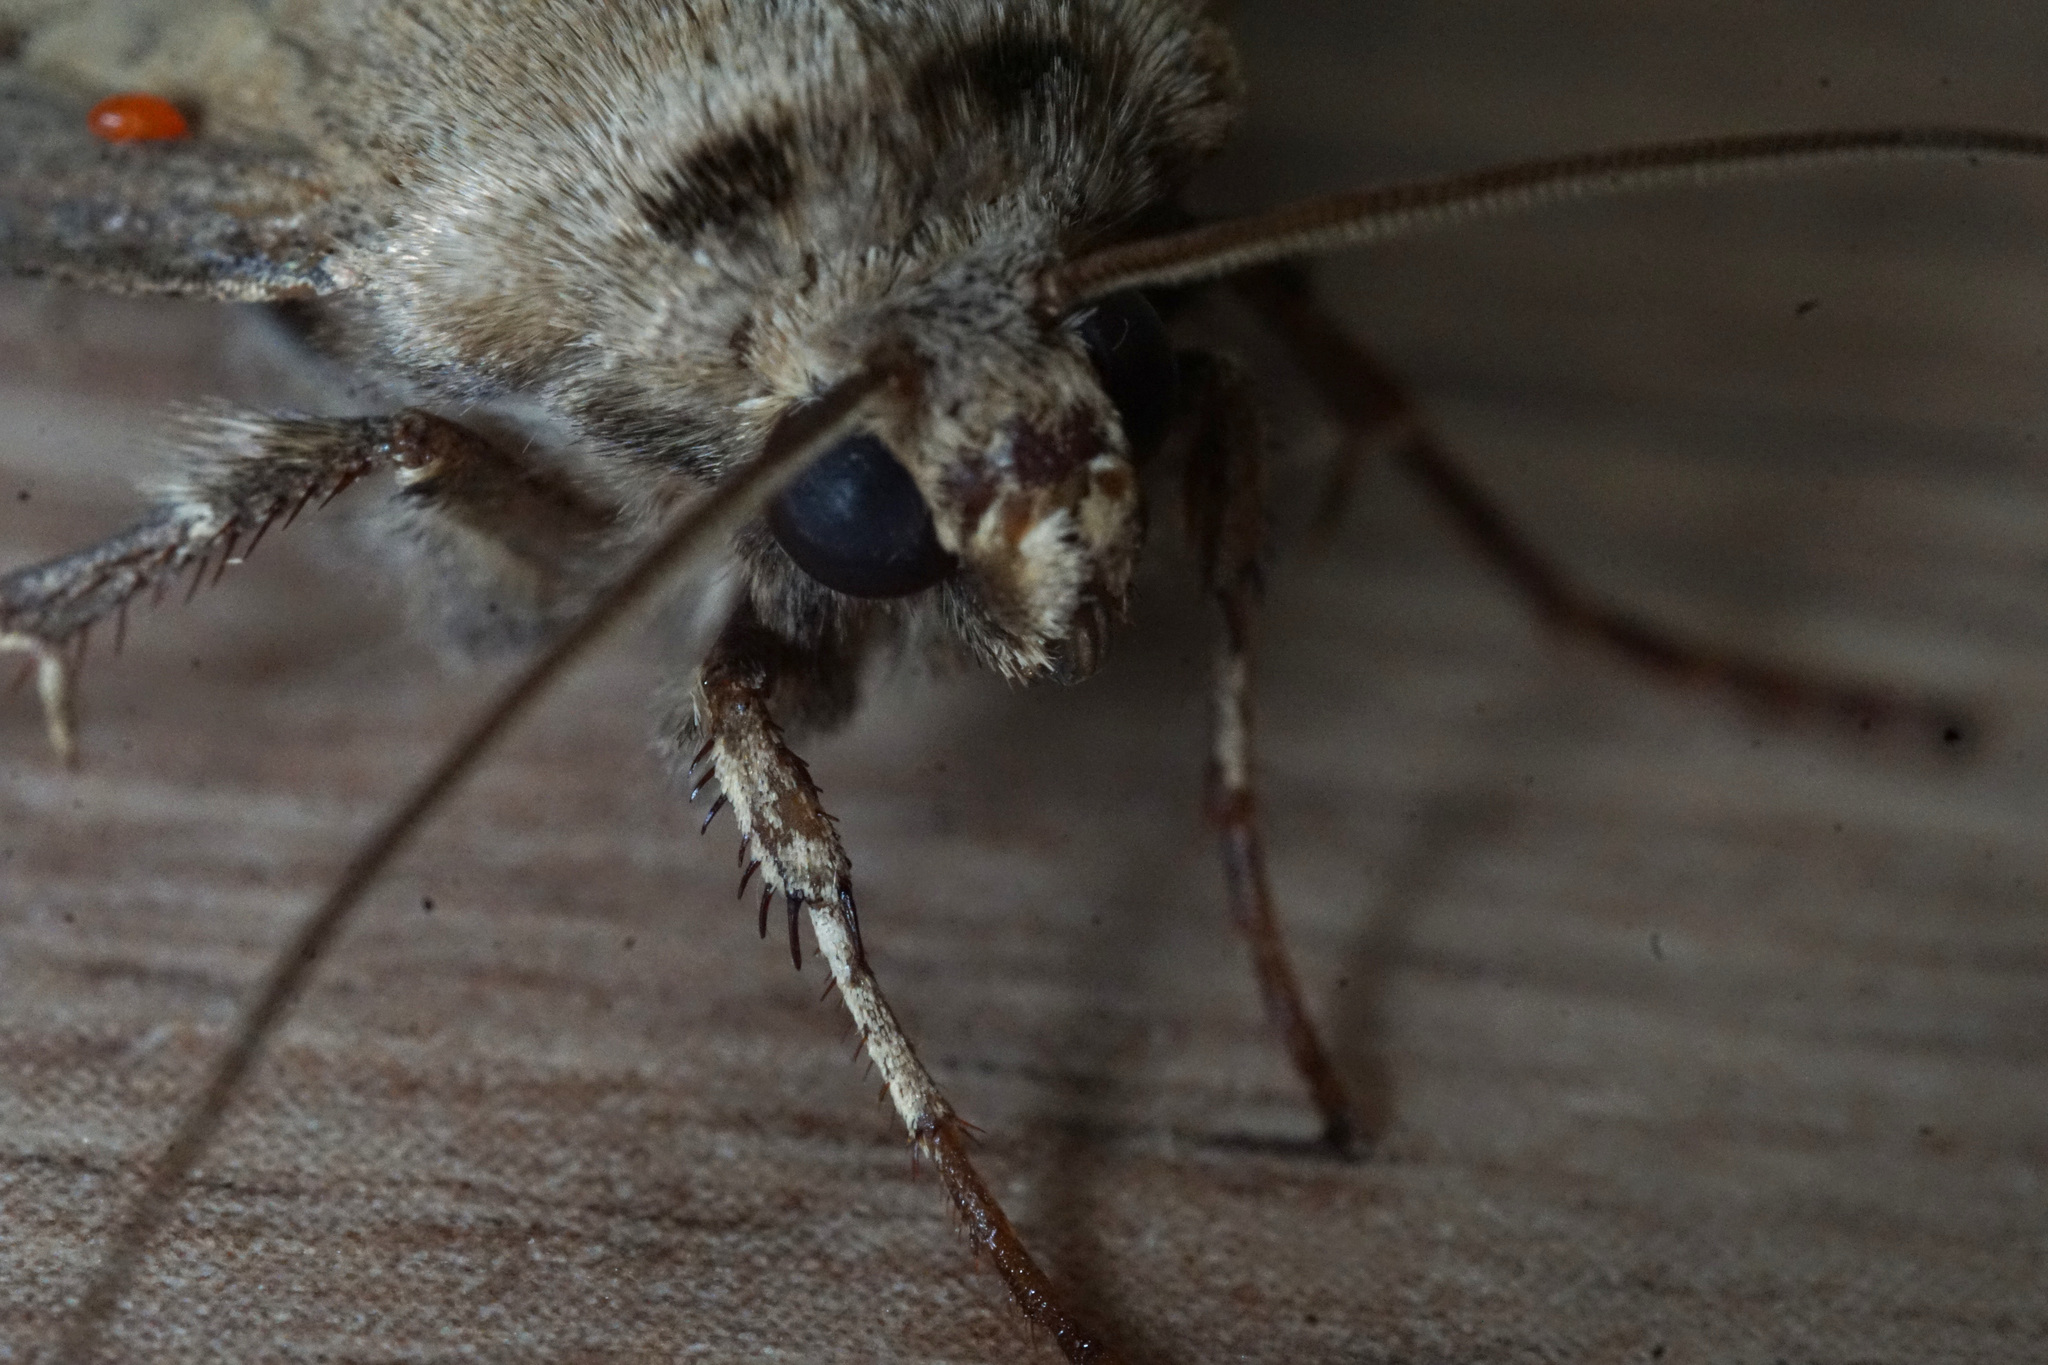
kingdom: Animalia
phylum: Arthropoda
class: Insecta
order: Lepidoptera
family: Noctuidae
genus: Agrotis
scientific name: Agrotis exclamationis
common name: Heart and dart
